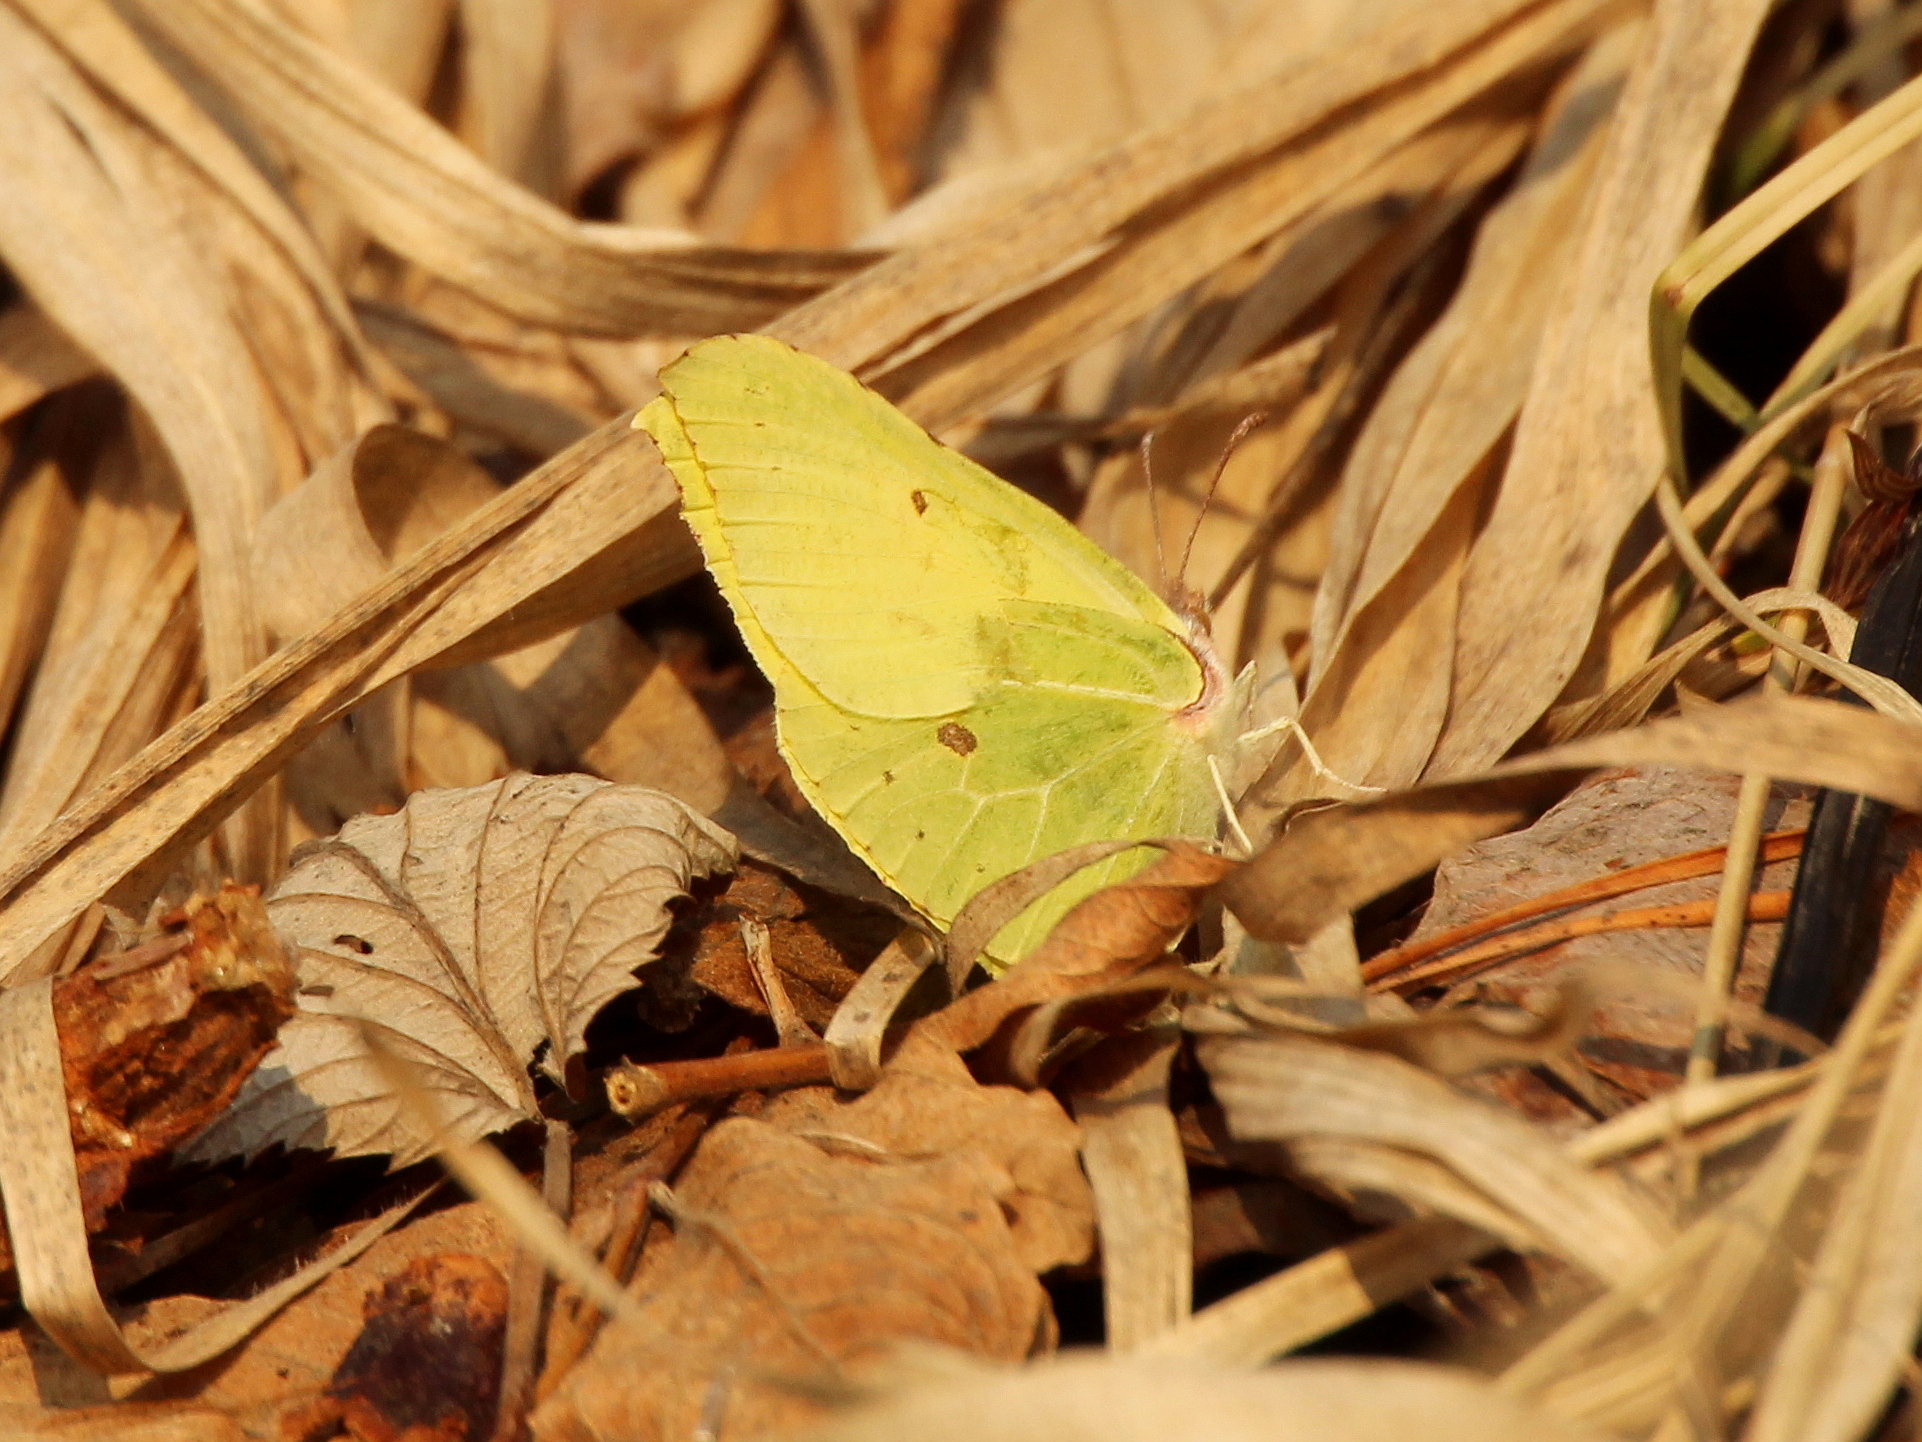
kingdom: Animalia
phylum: Arthropoda
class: Insecta
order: Lepidoptera
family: Pieridae
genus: Gonepteryx
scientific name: Gonepteryx rhamni
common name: Brimstone
